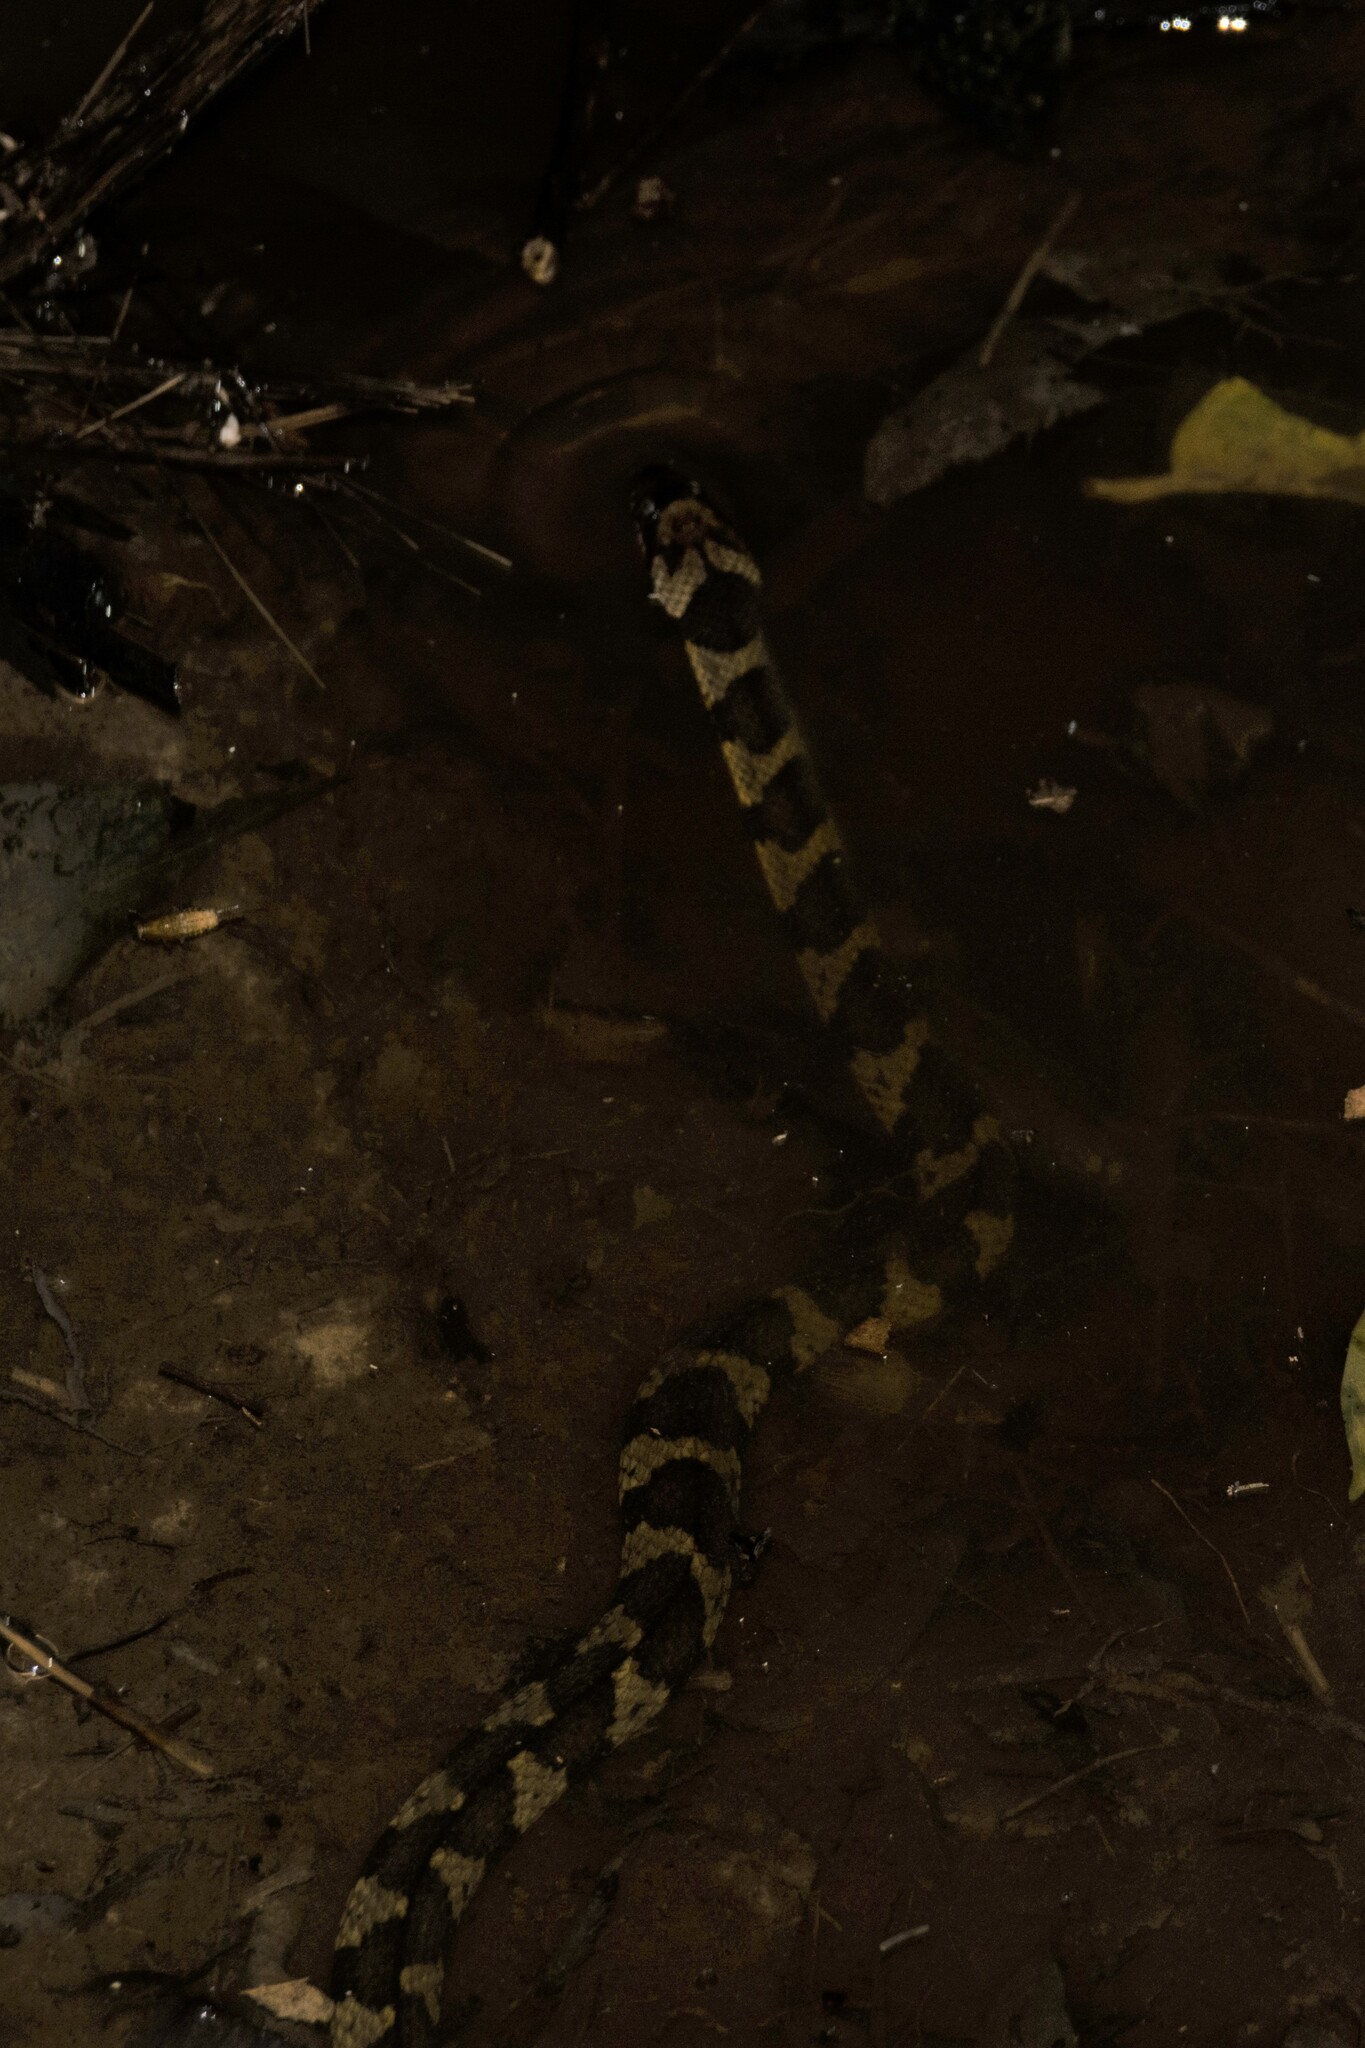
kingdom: Animalia
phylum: Chordata
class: Squamata
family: Colubridae
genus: Helicops
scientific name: Helicops angulatus
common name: Mountain keelback
